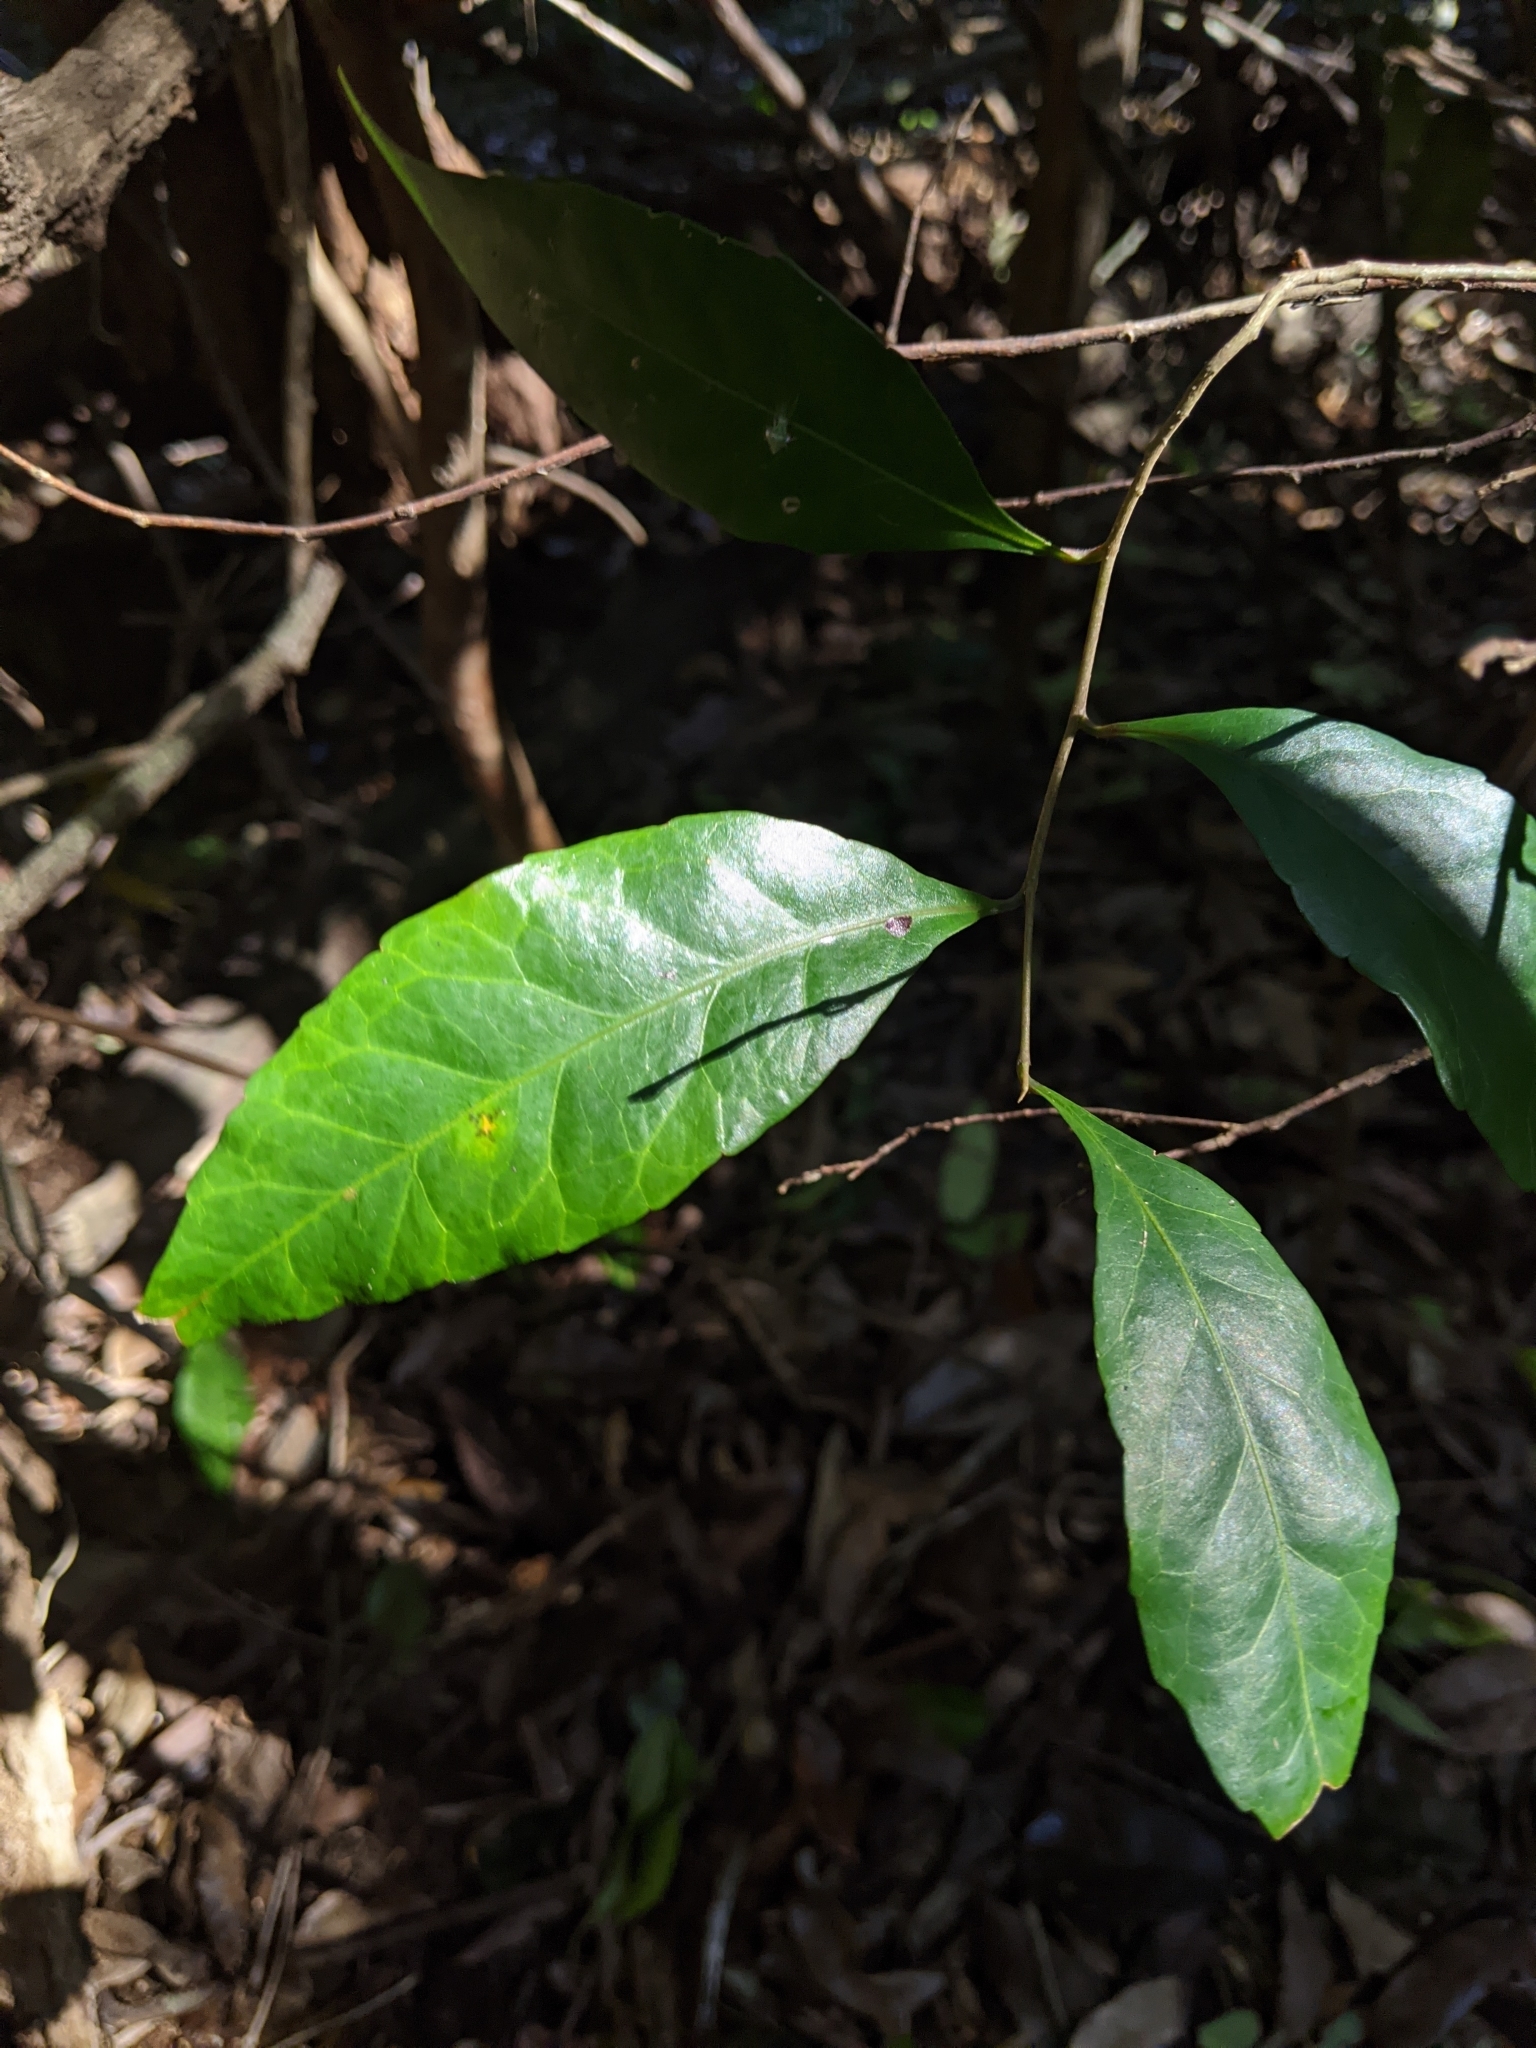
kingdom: Plantae
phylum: Tracheophyta
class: Magnoliopsida
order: Oxalidales
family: Elaeocarpaceae
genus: Elaeocarpus
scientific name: Elaeocarpus obovatus
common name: Freckled oliveberry
